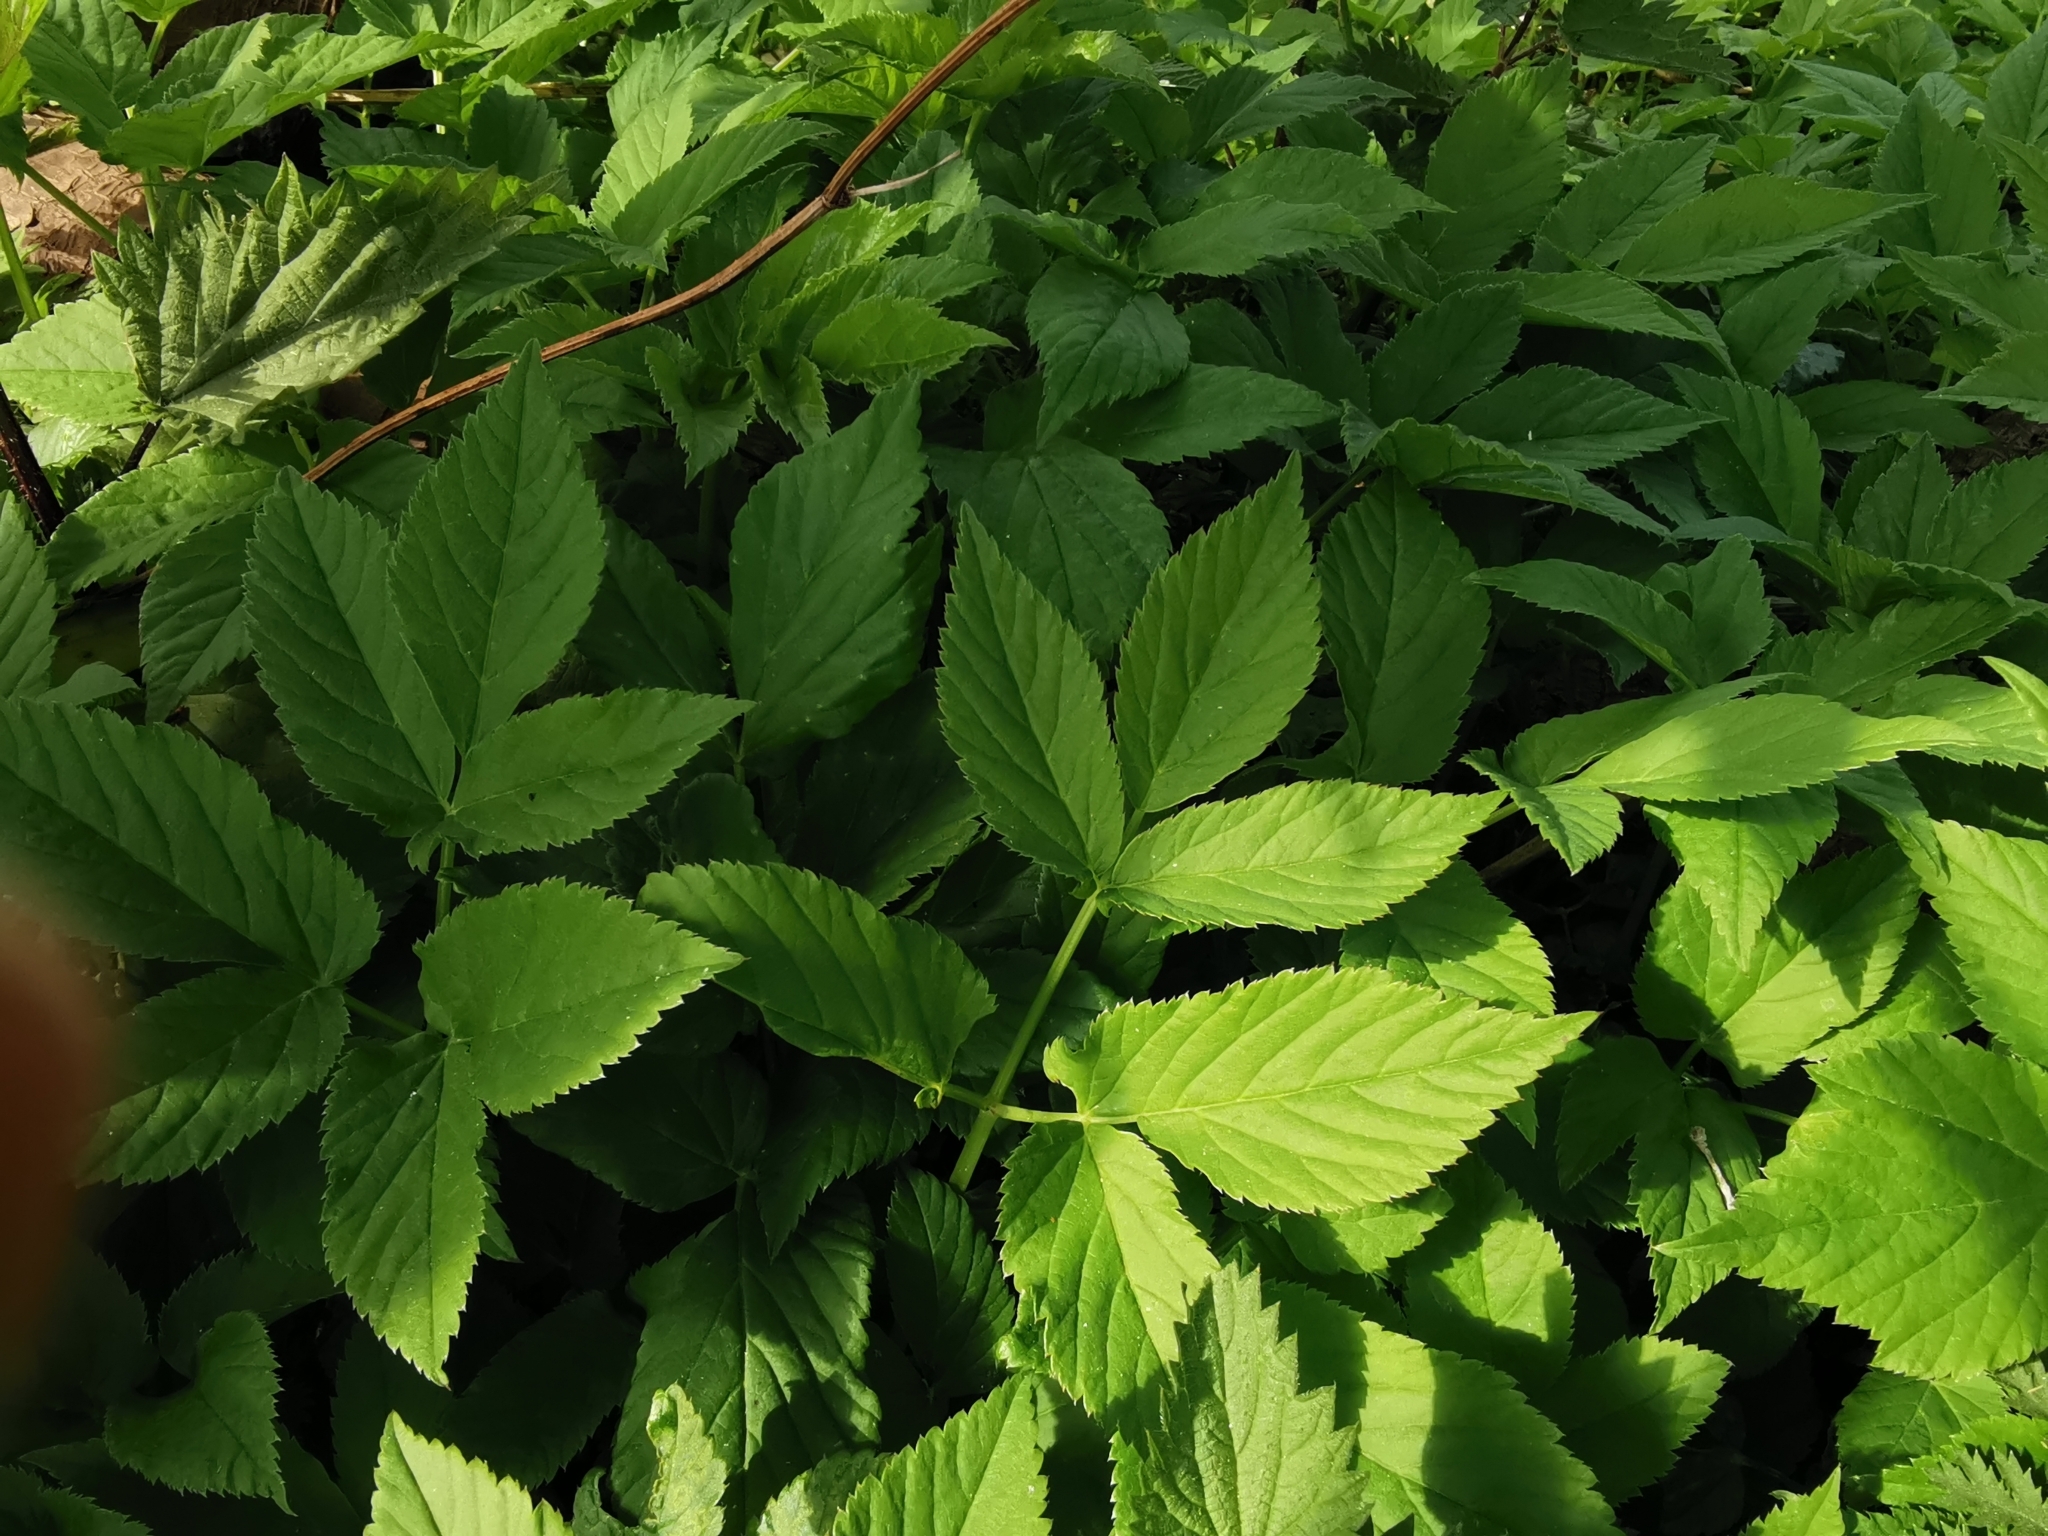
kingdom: Plantae
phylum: Tracheophyta
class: Magnoliopsida
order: Apiales
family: Apiaceae
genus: Aegopodium
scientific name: Aegopodium podagraria
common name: Ground-elder
